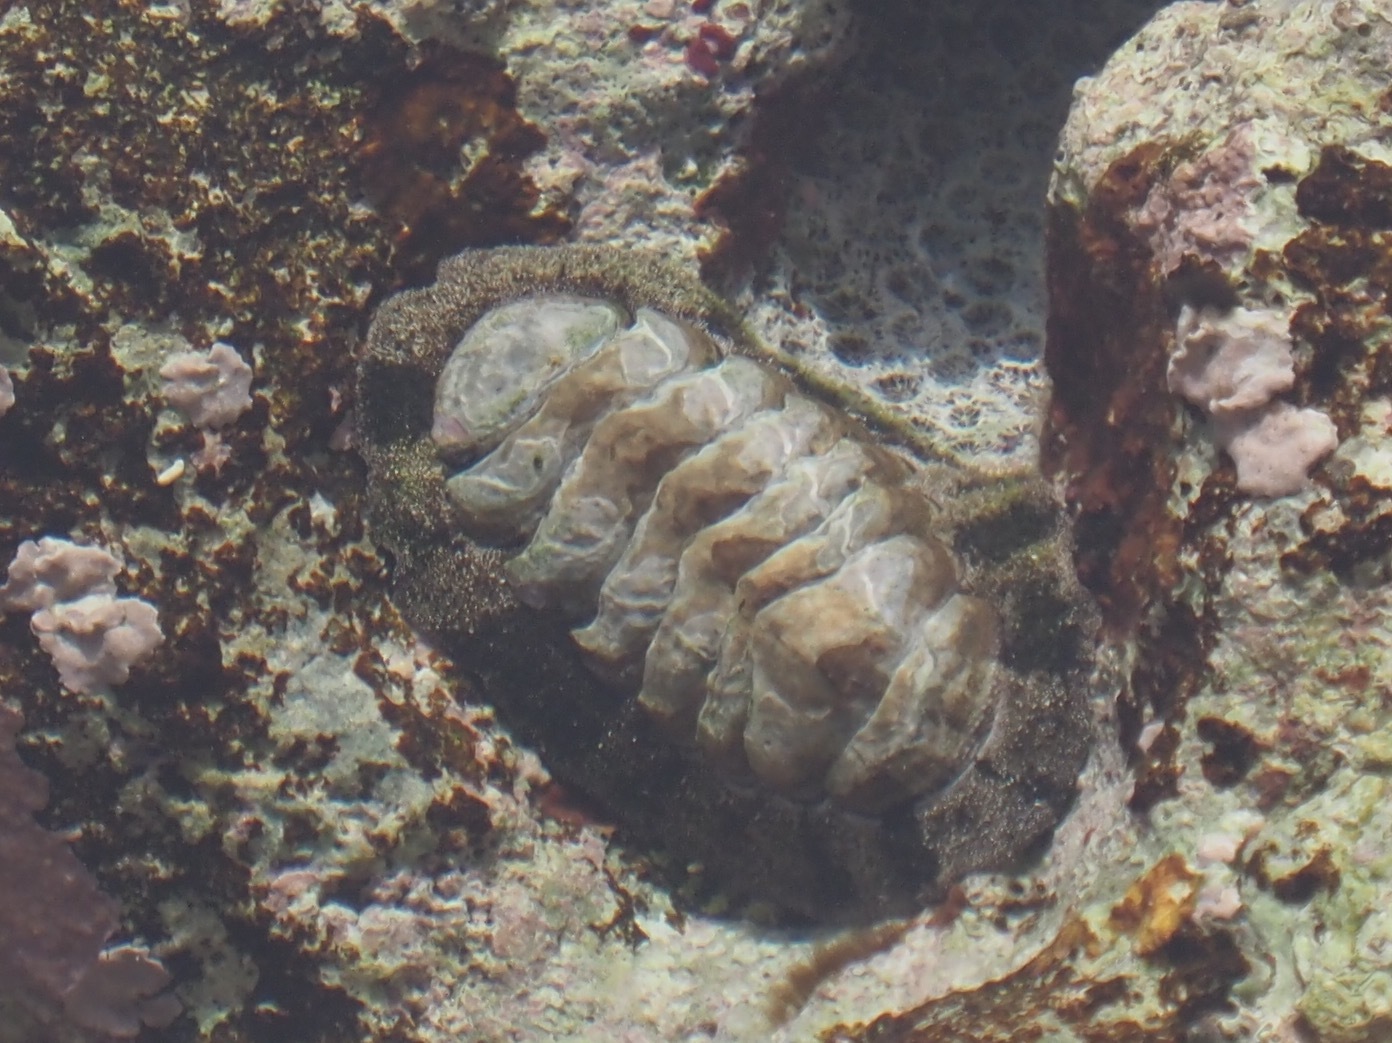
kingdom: Animalia
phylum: Mollusca
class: Polyplacophora
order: Chitonida
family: Chitonidae
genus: Acanthopleura
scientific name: Acanthopleura granulata
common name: West indian fuzzy chiton
